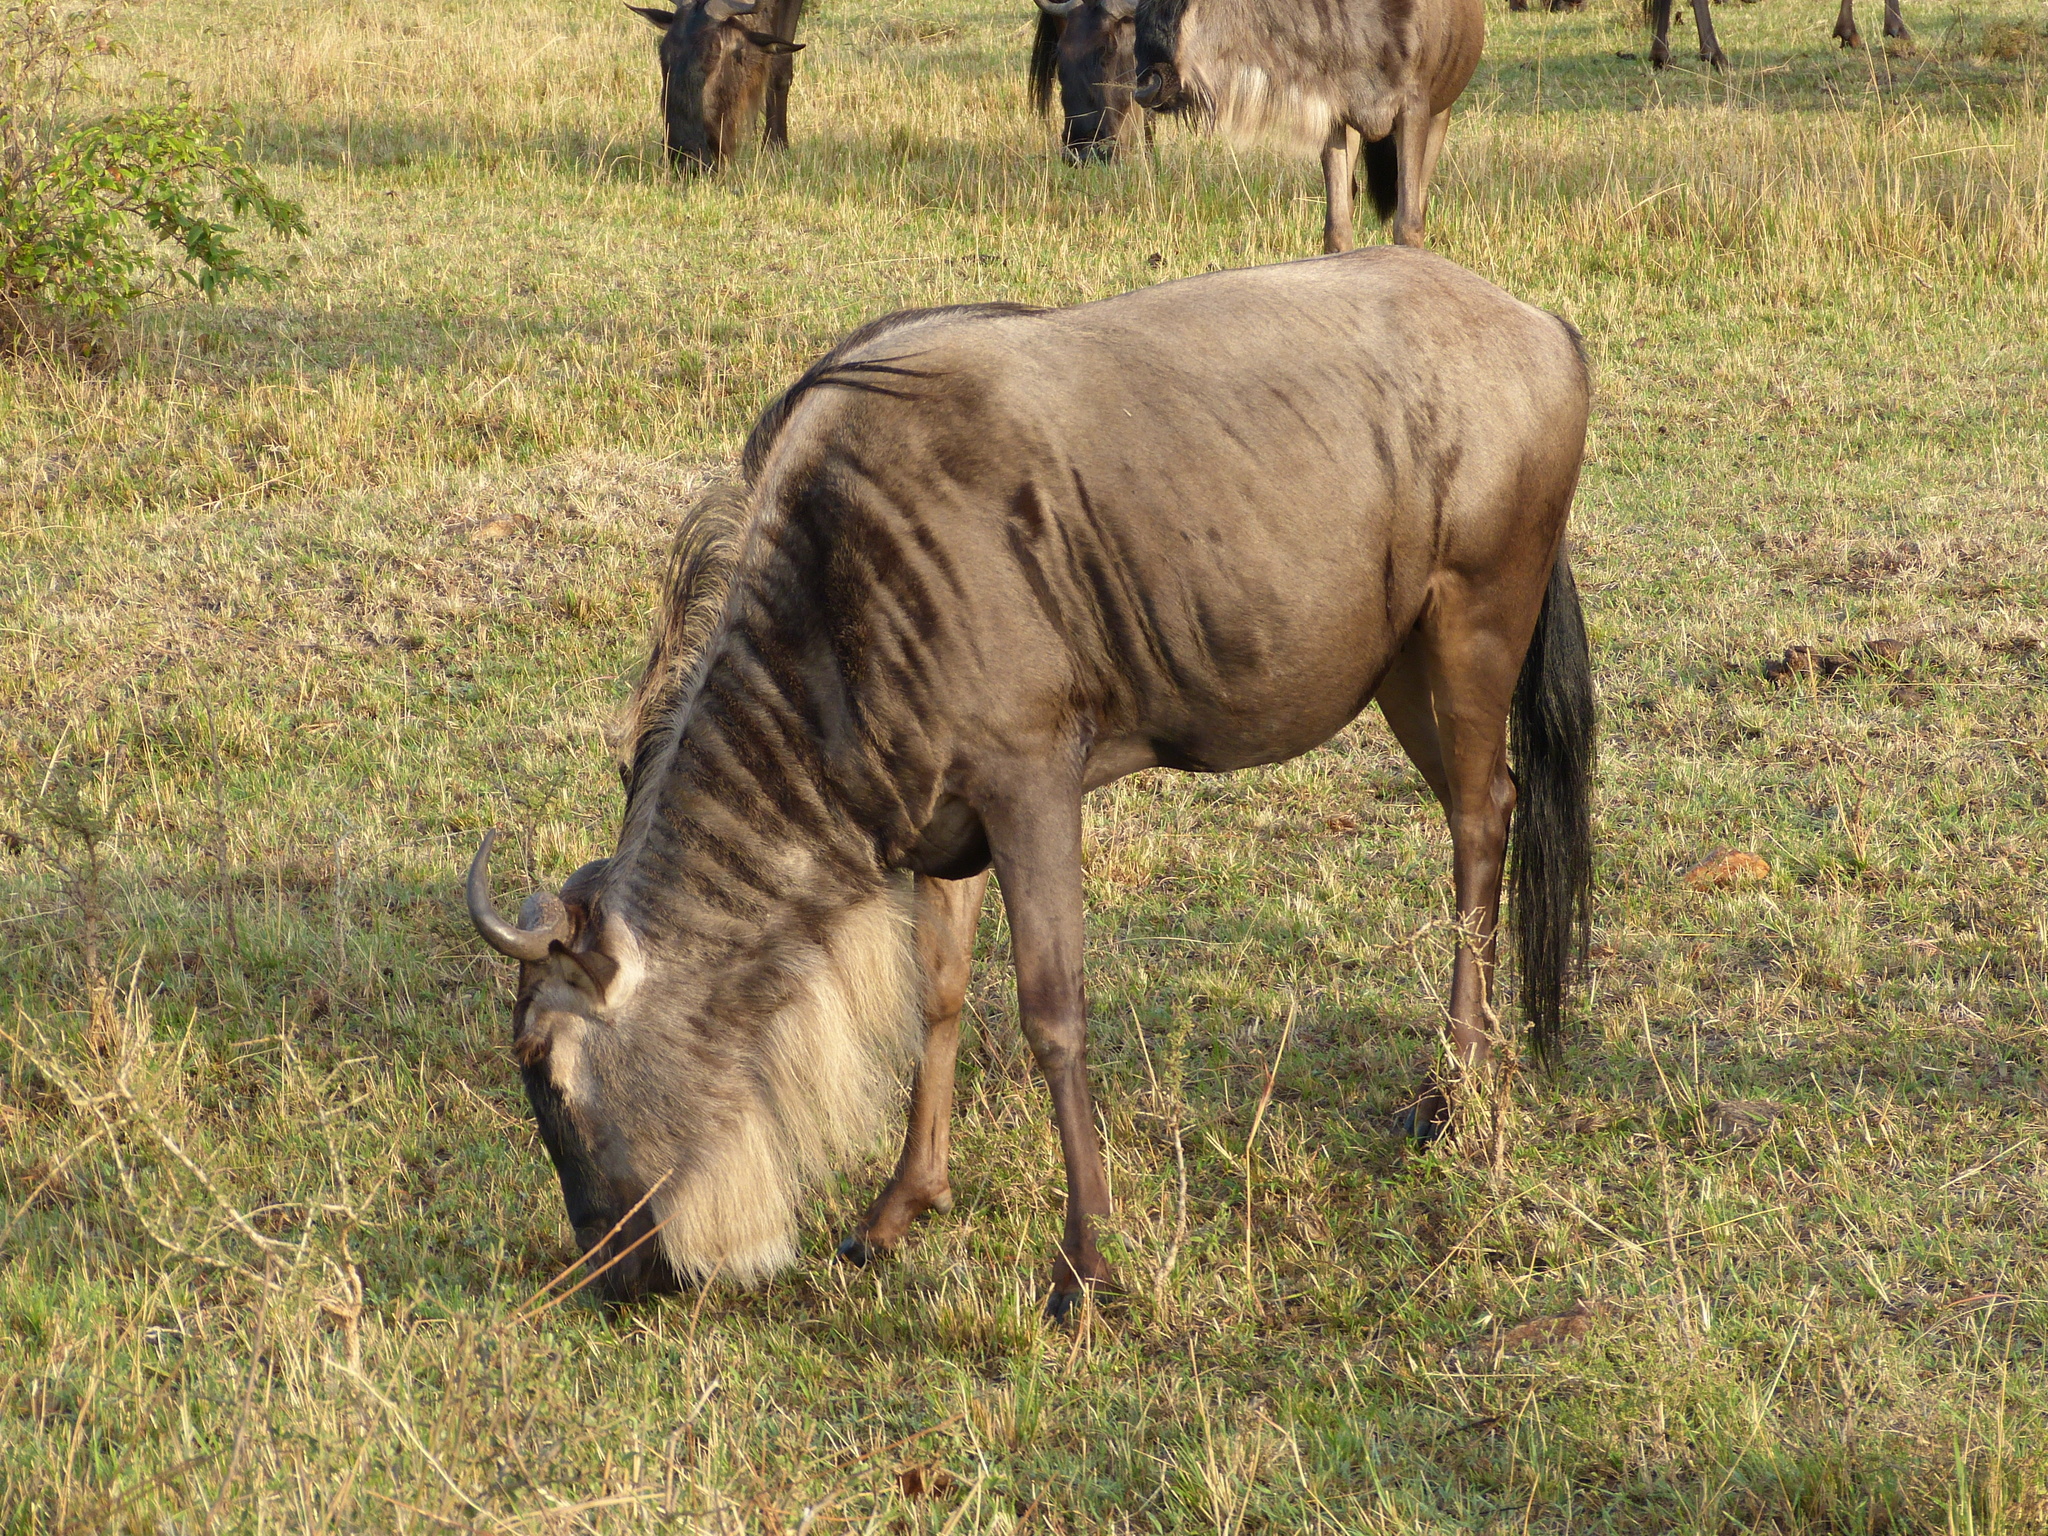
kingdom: Animalia
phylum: Chordata
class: Mammalia
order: Artiodactyla
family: Bovidae
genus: Connochaetes
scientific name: Connochaetes taurinus
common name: Blue wildebeest
